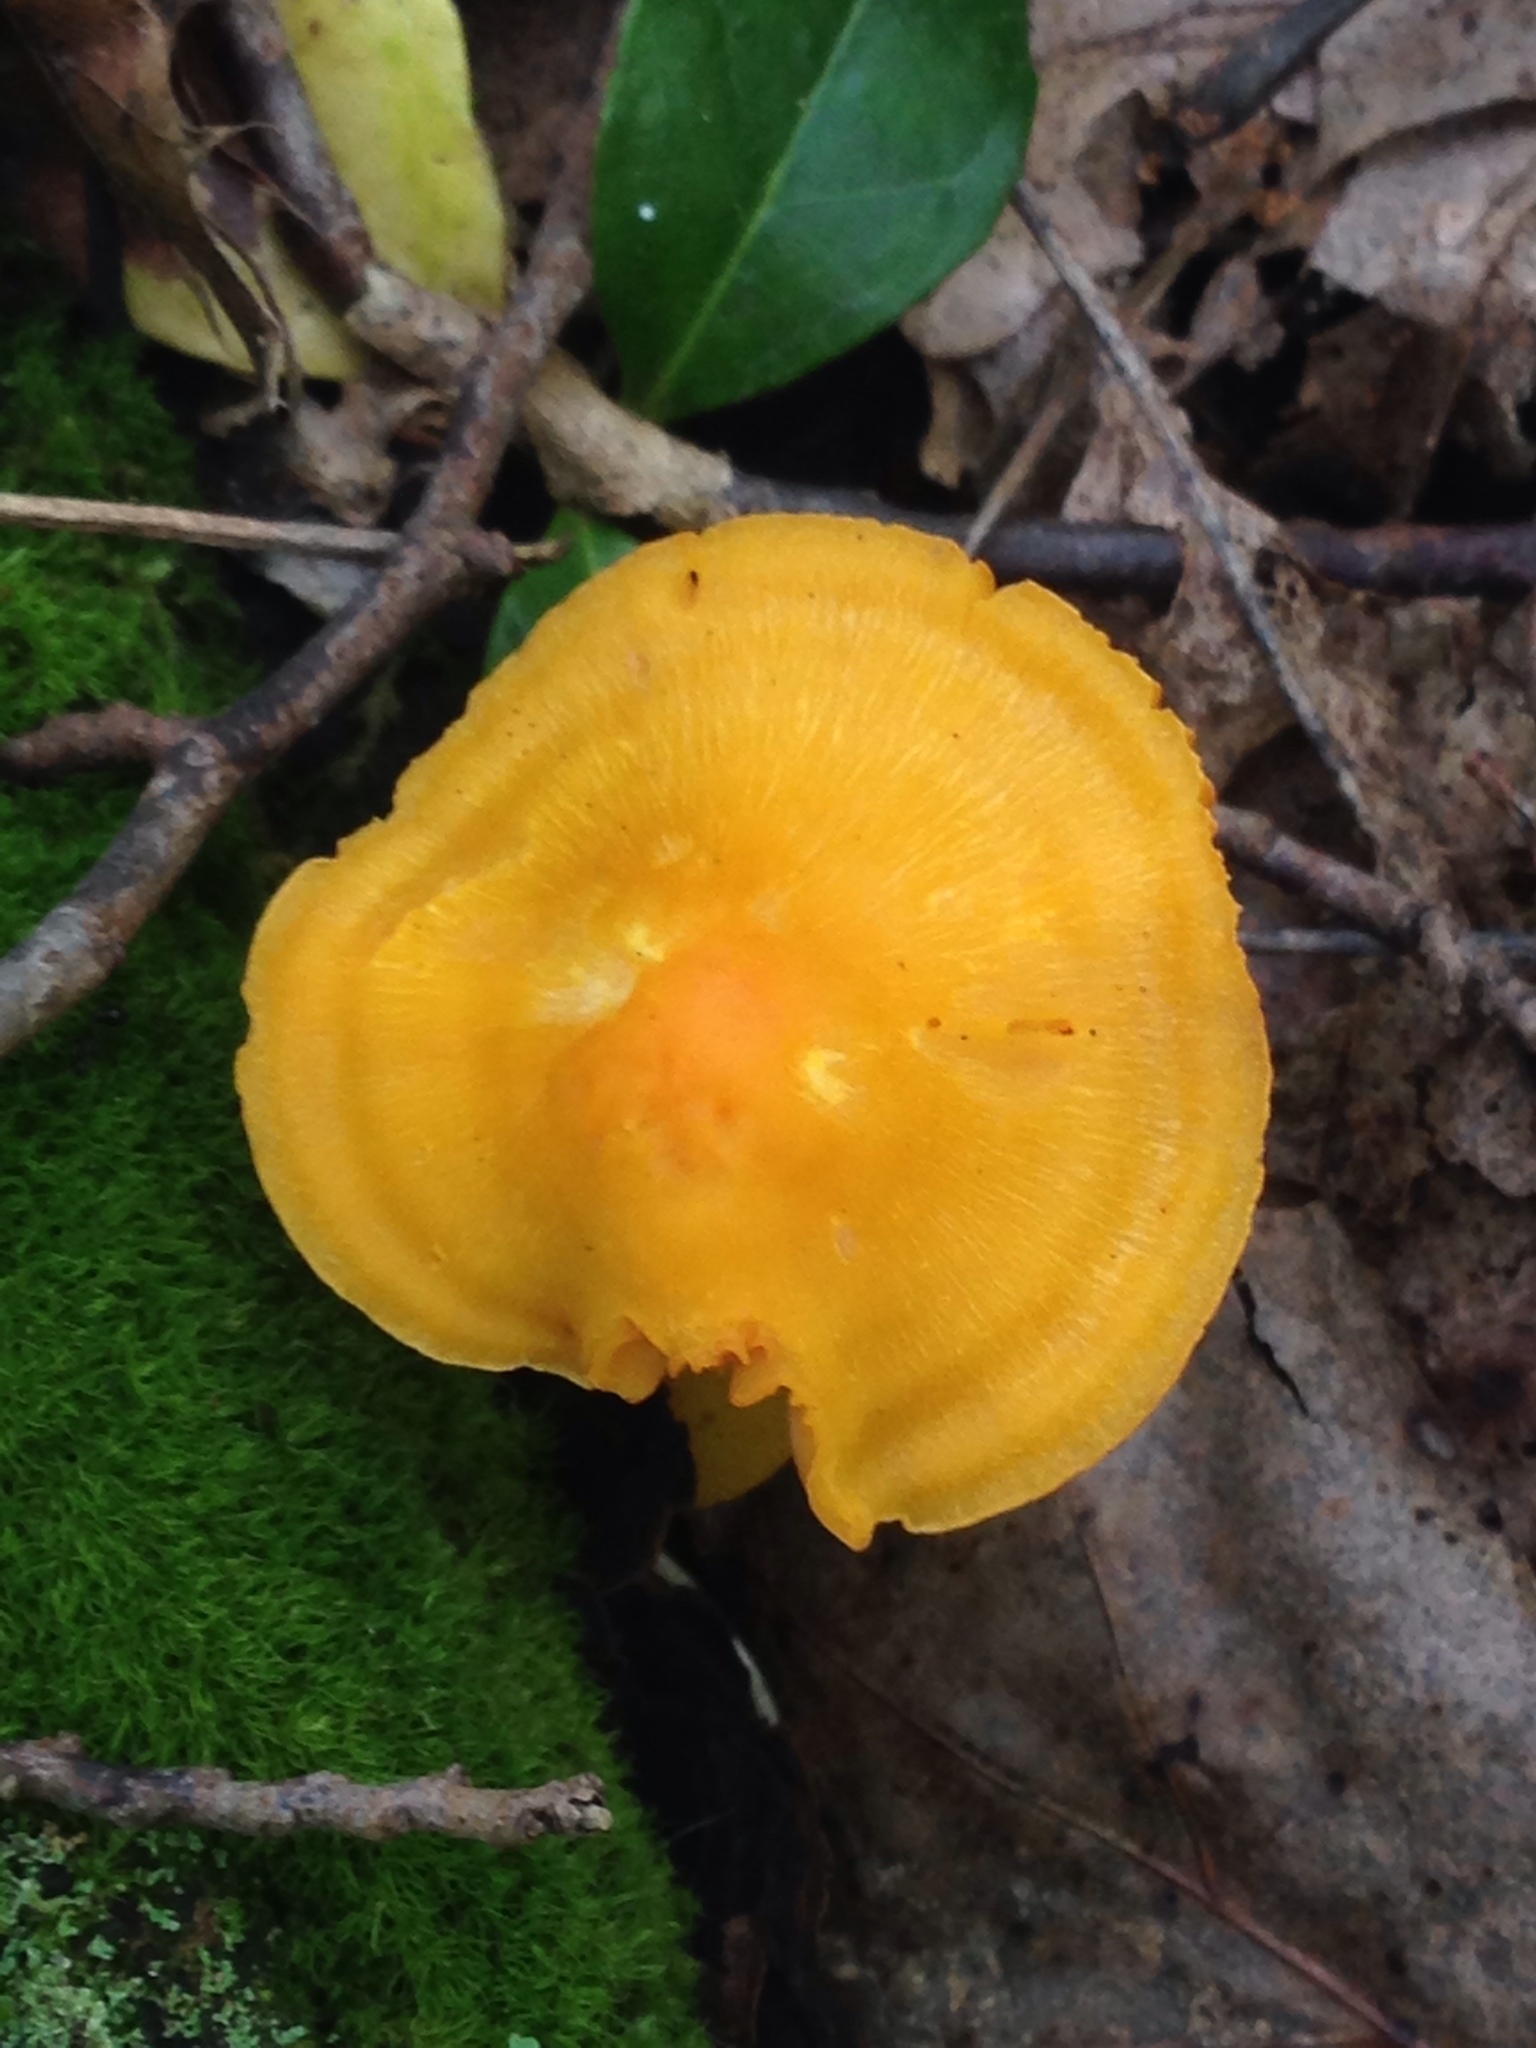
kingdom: Fungi
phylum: Basidiomycota
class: Agaricomycetes
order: Agaricales
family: Hygrophoraceae
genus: Humidicutis
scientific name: Humidicutis marginata
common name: Orange gilled waxcap
